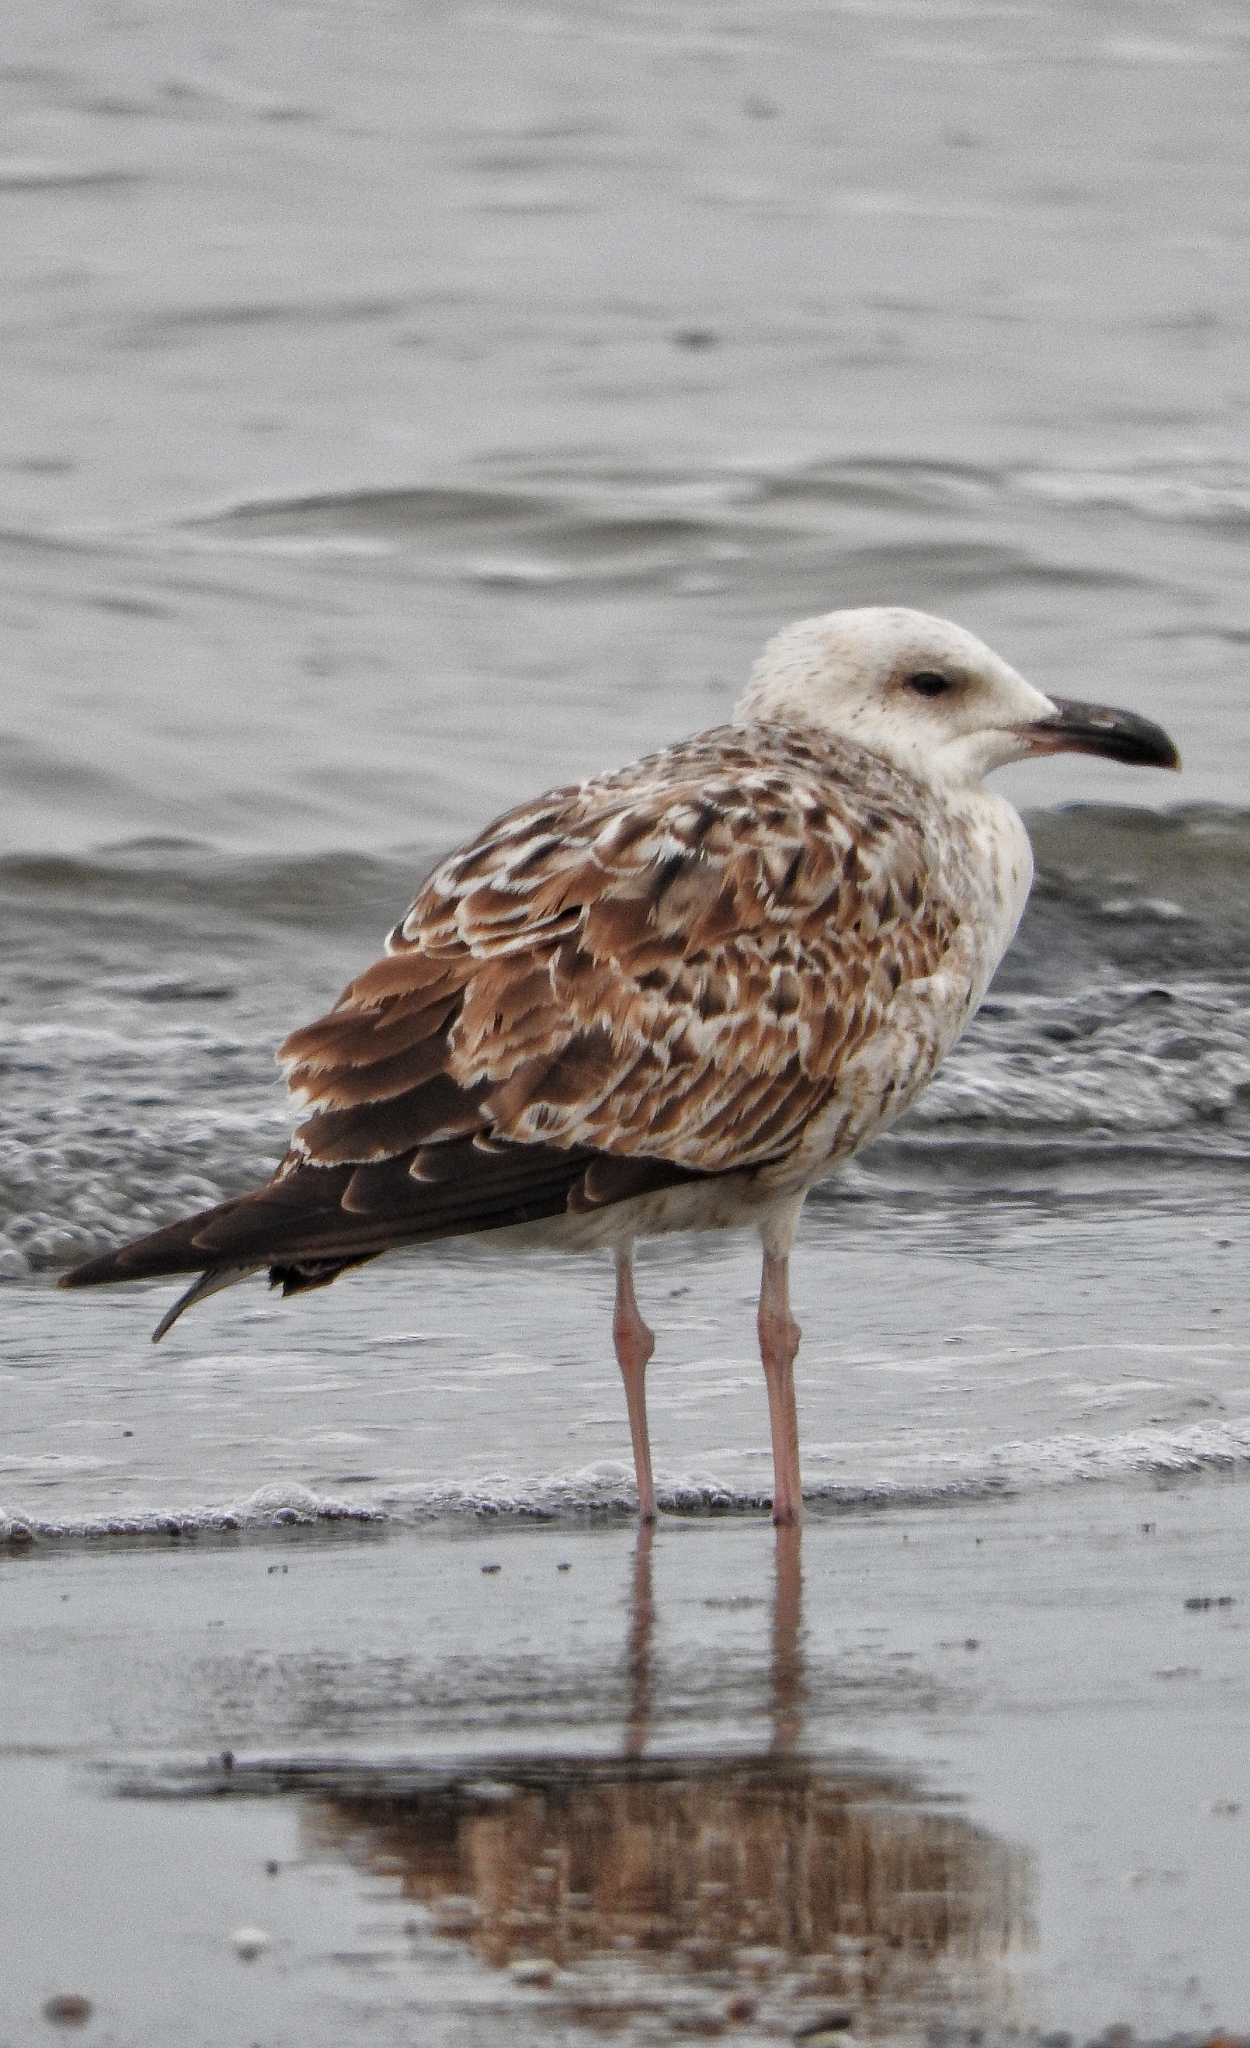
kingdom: Animalia
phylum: Chordata
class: Aves
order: Charadriiformes
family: Laridae
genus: Larus
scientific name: Larus cachinnans
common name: Caspian gull
